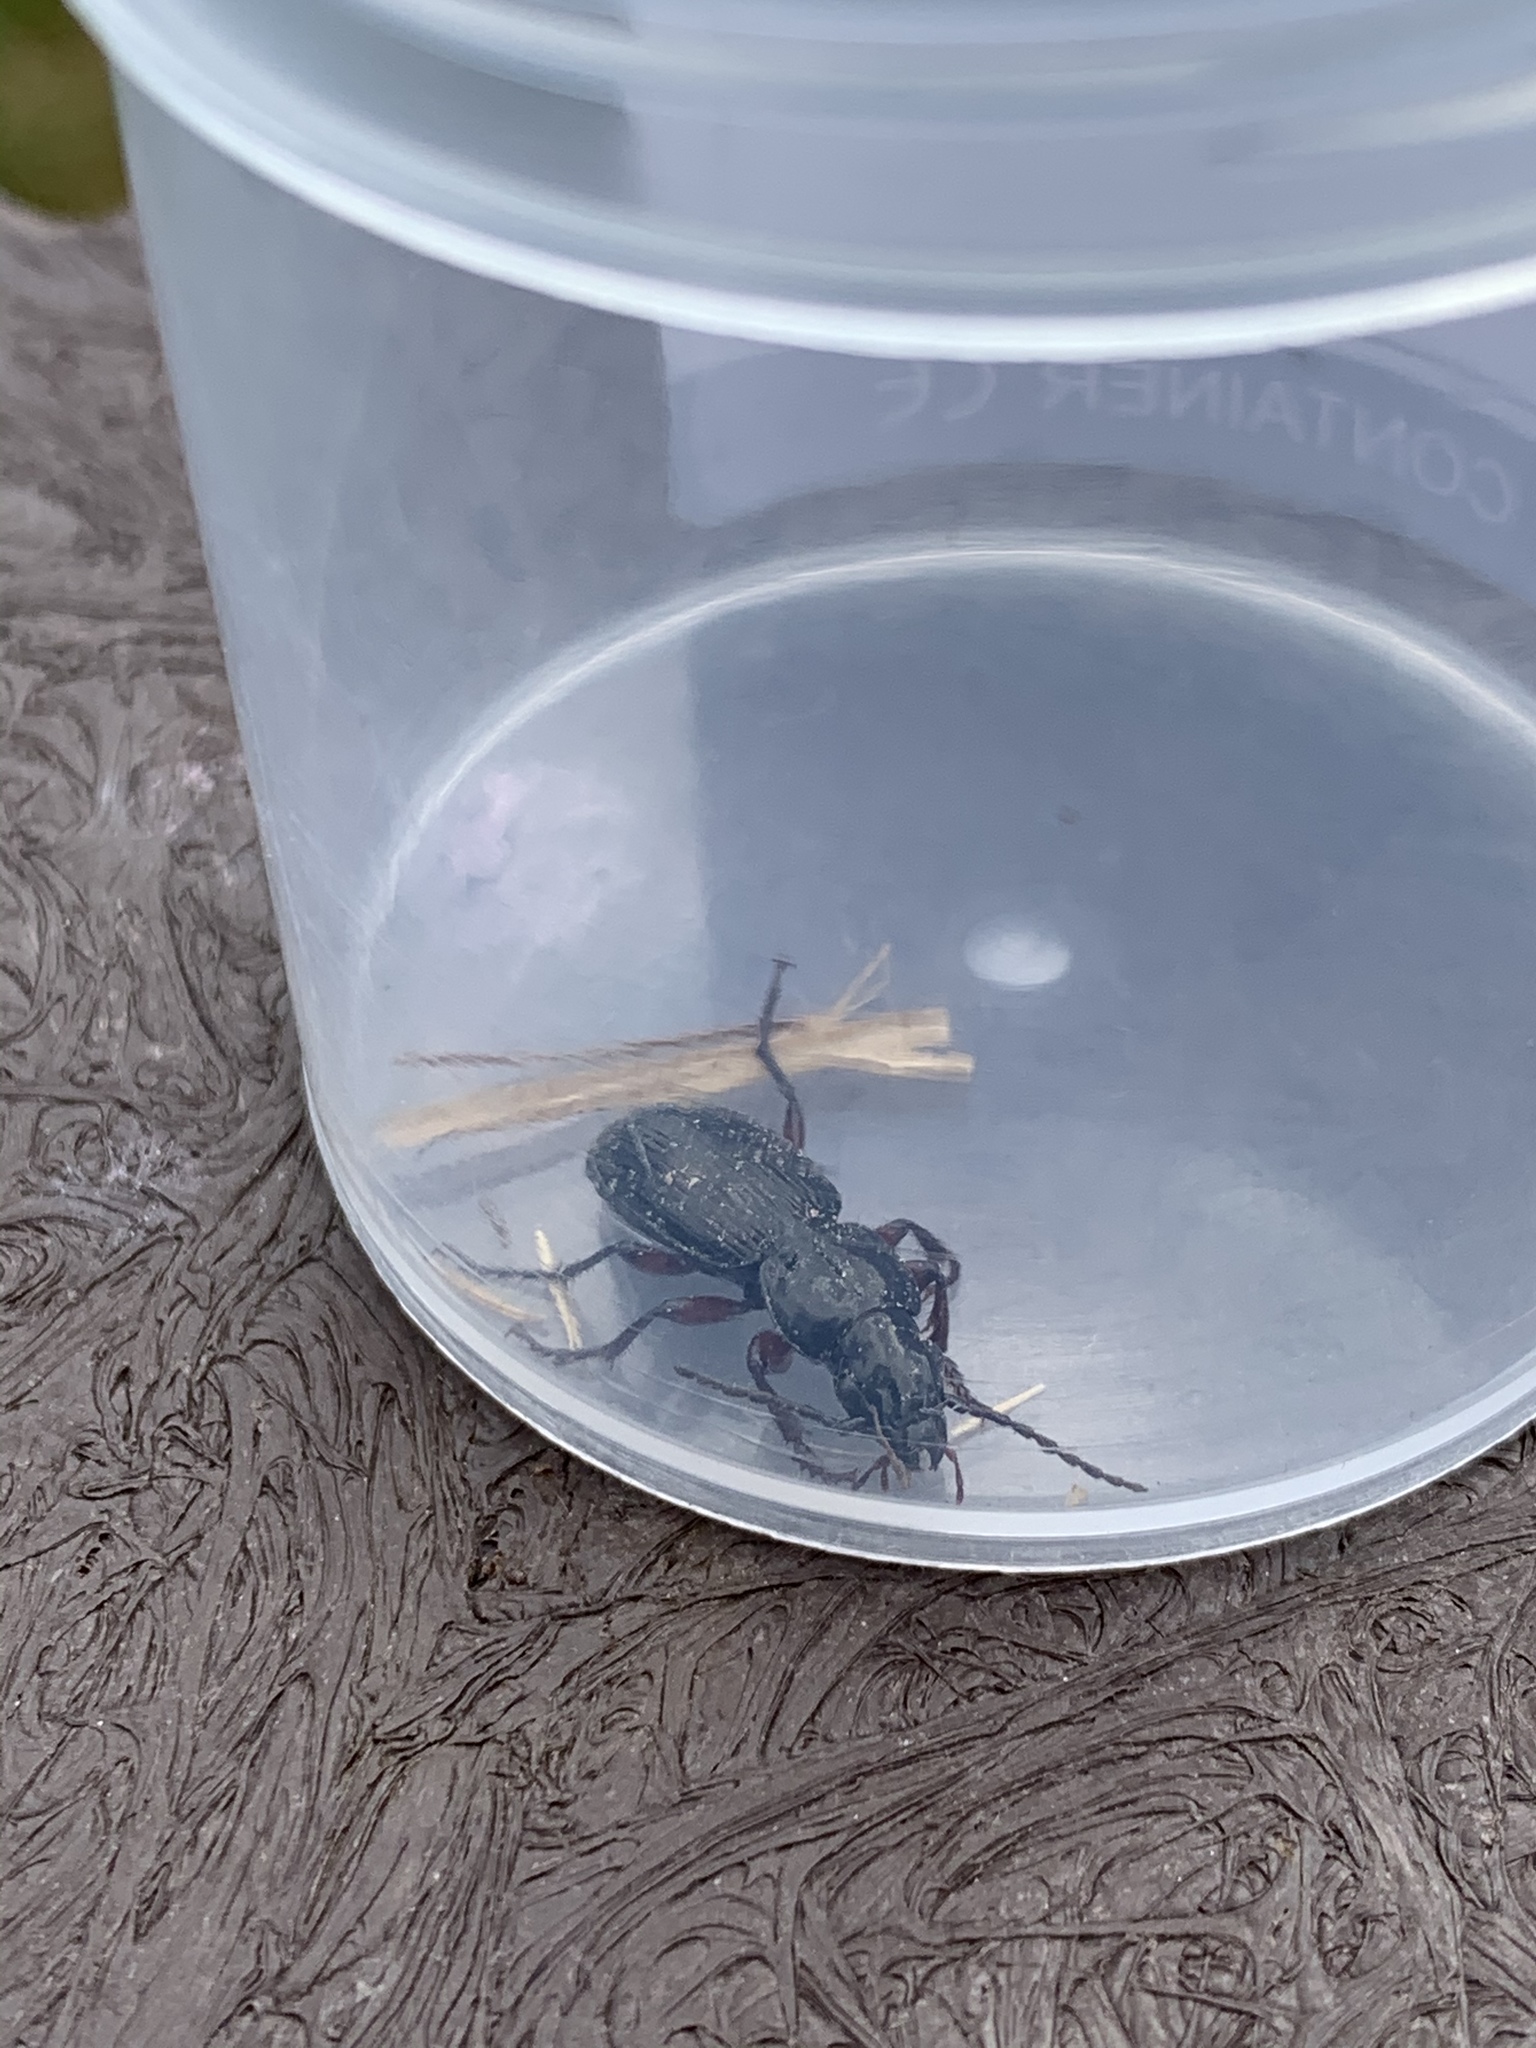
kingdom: Animalia
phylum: Arthropoda
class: Insecta
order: Coleoptera
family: Carabidae
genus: Pterostichus
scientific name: Pterostichus madidus
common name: Black clock
